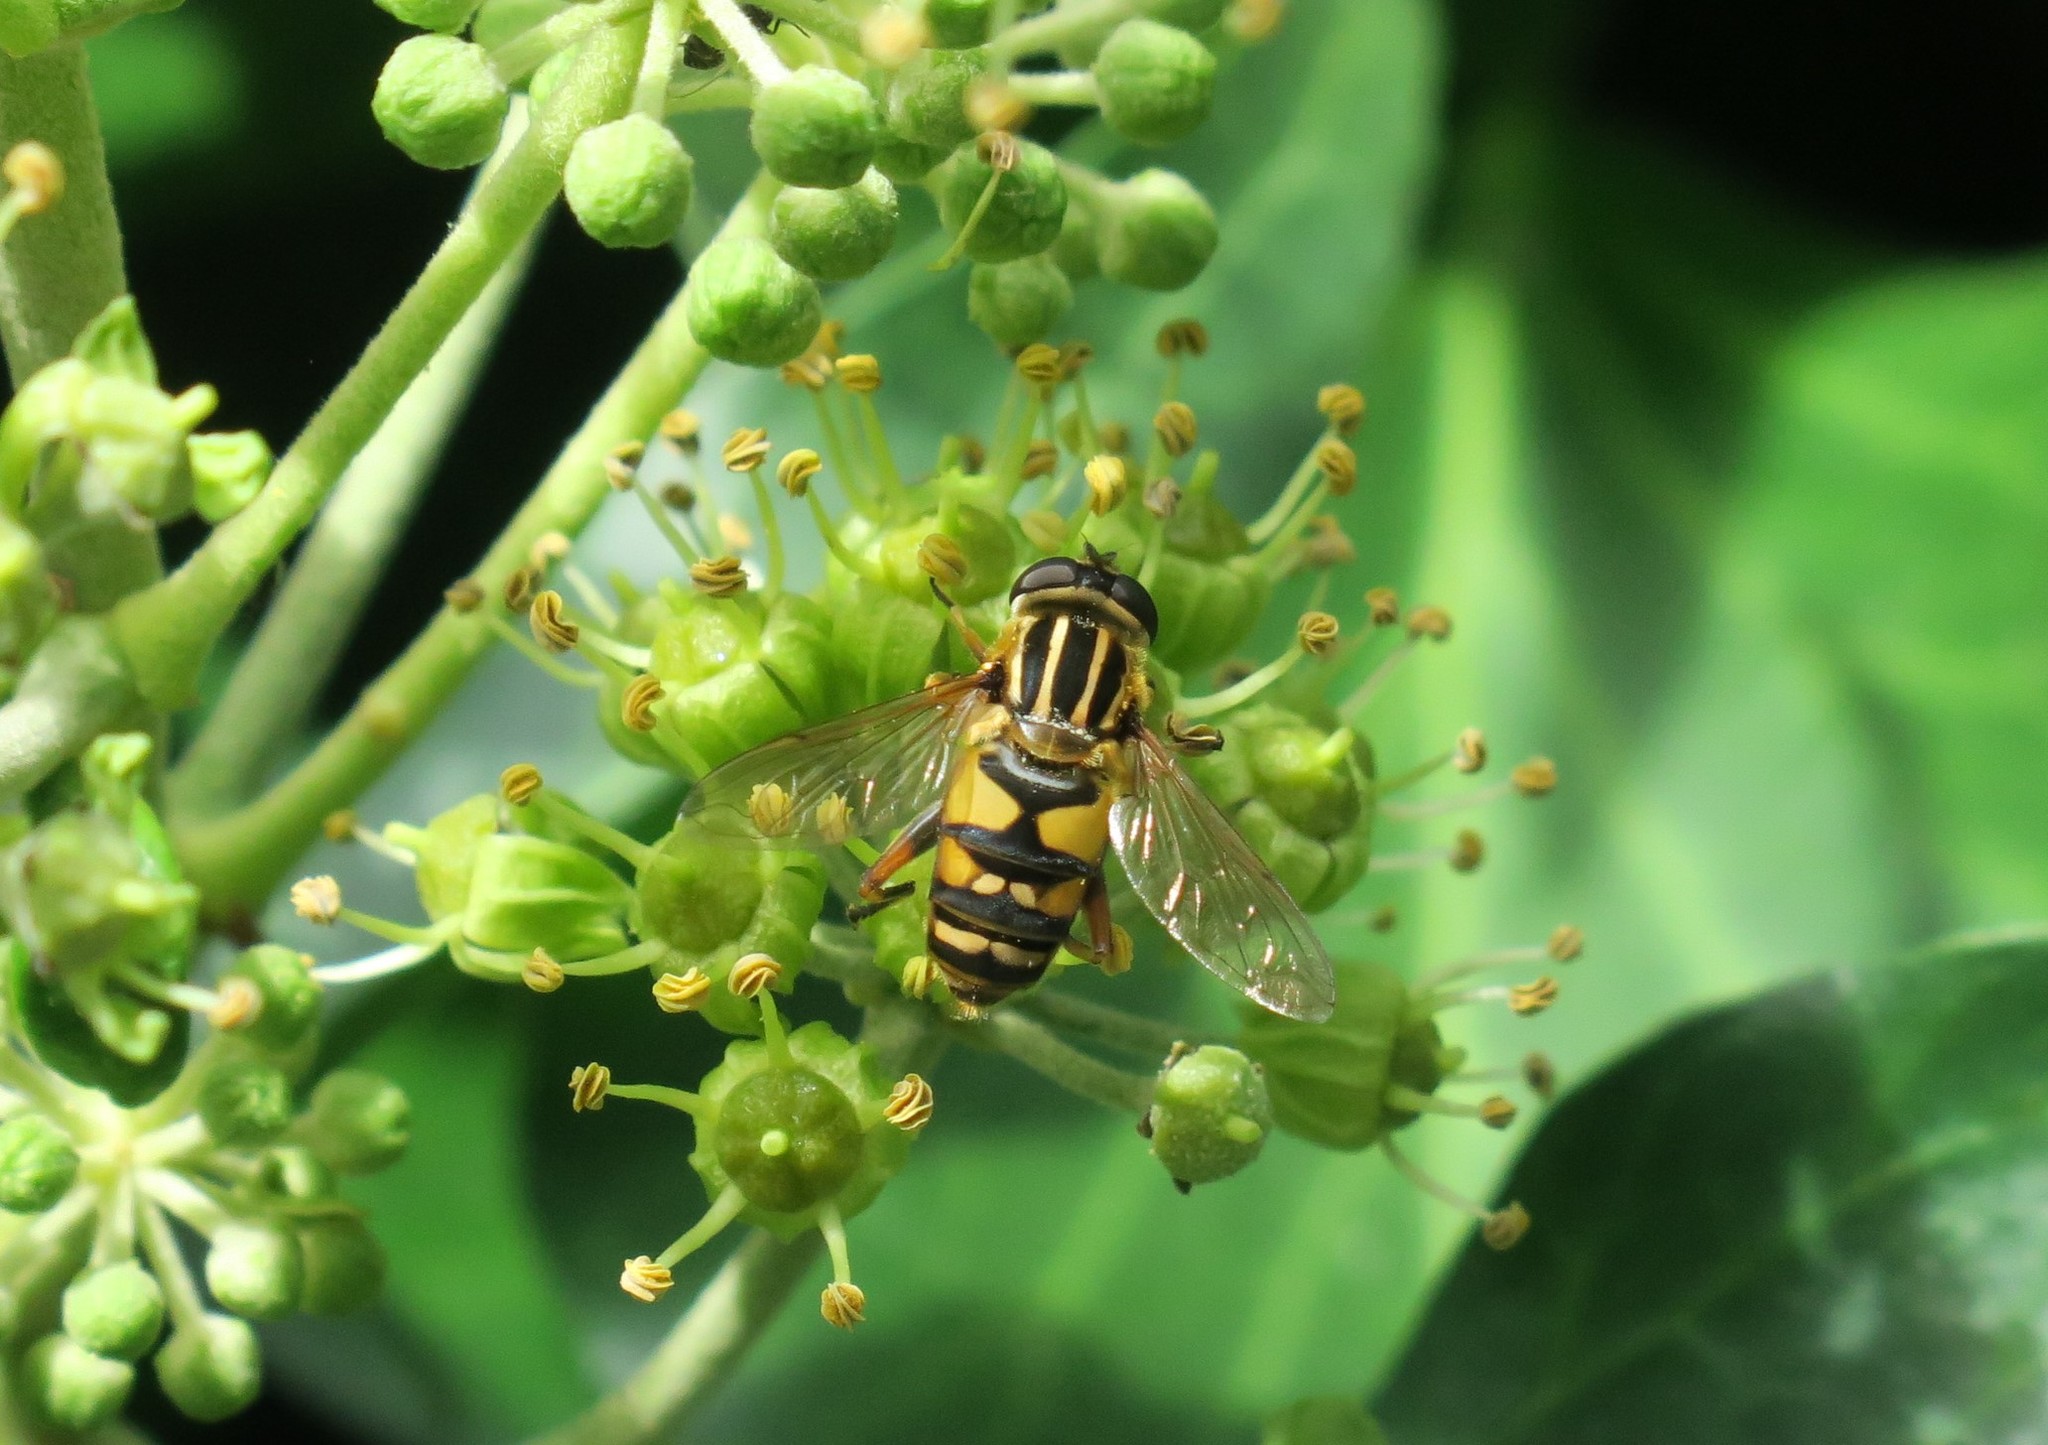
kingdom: Animalia
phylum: Arthropoda
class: Insecta
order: Diptera
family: Syrphidae
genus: Helophilus
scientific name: Helophilus pendulus
